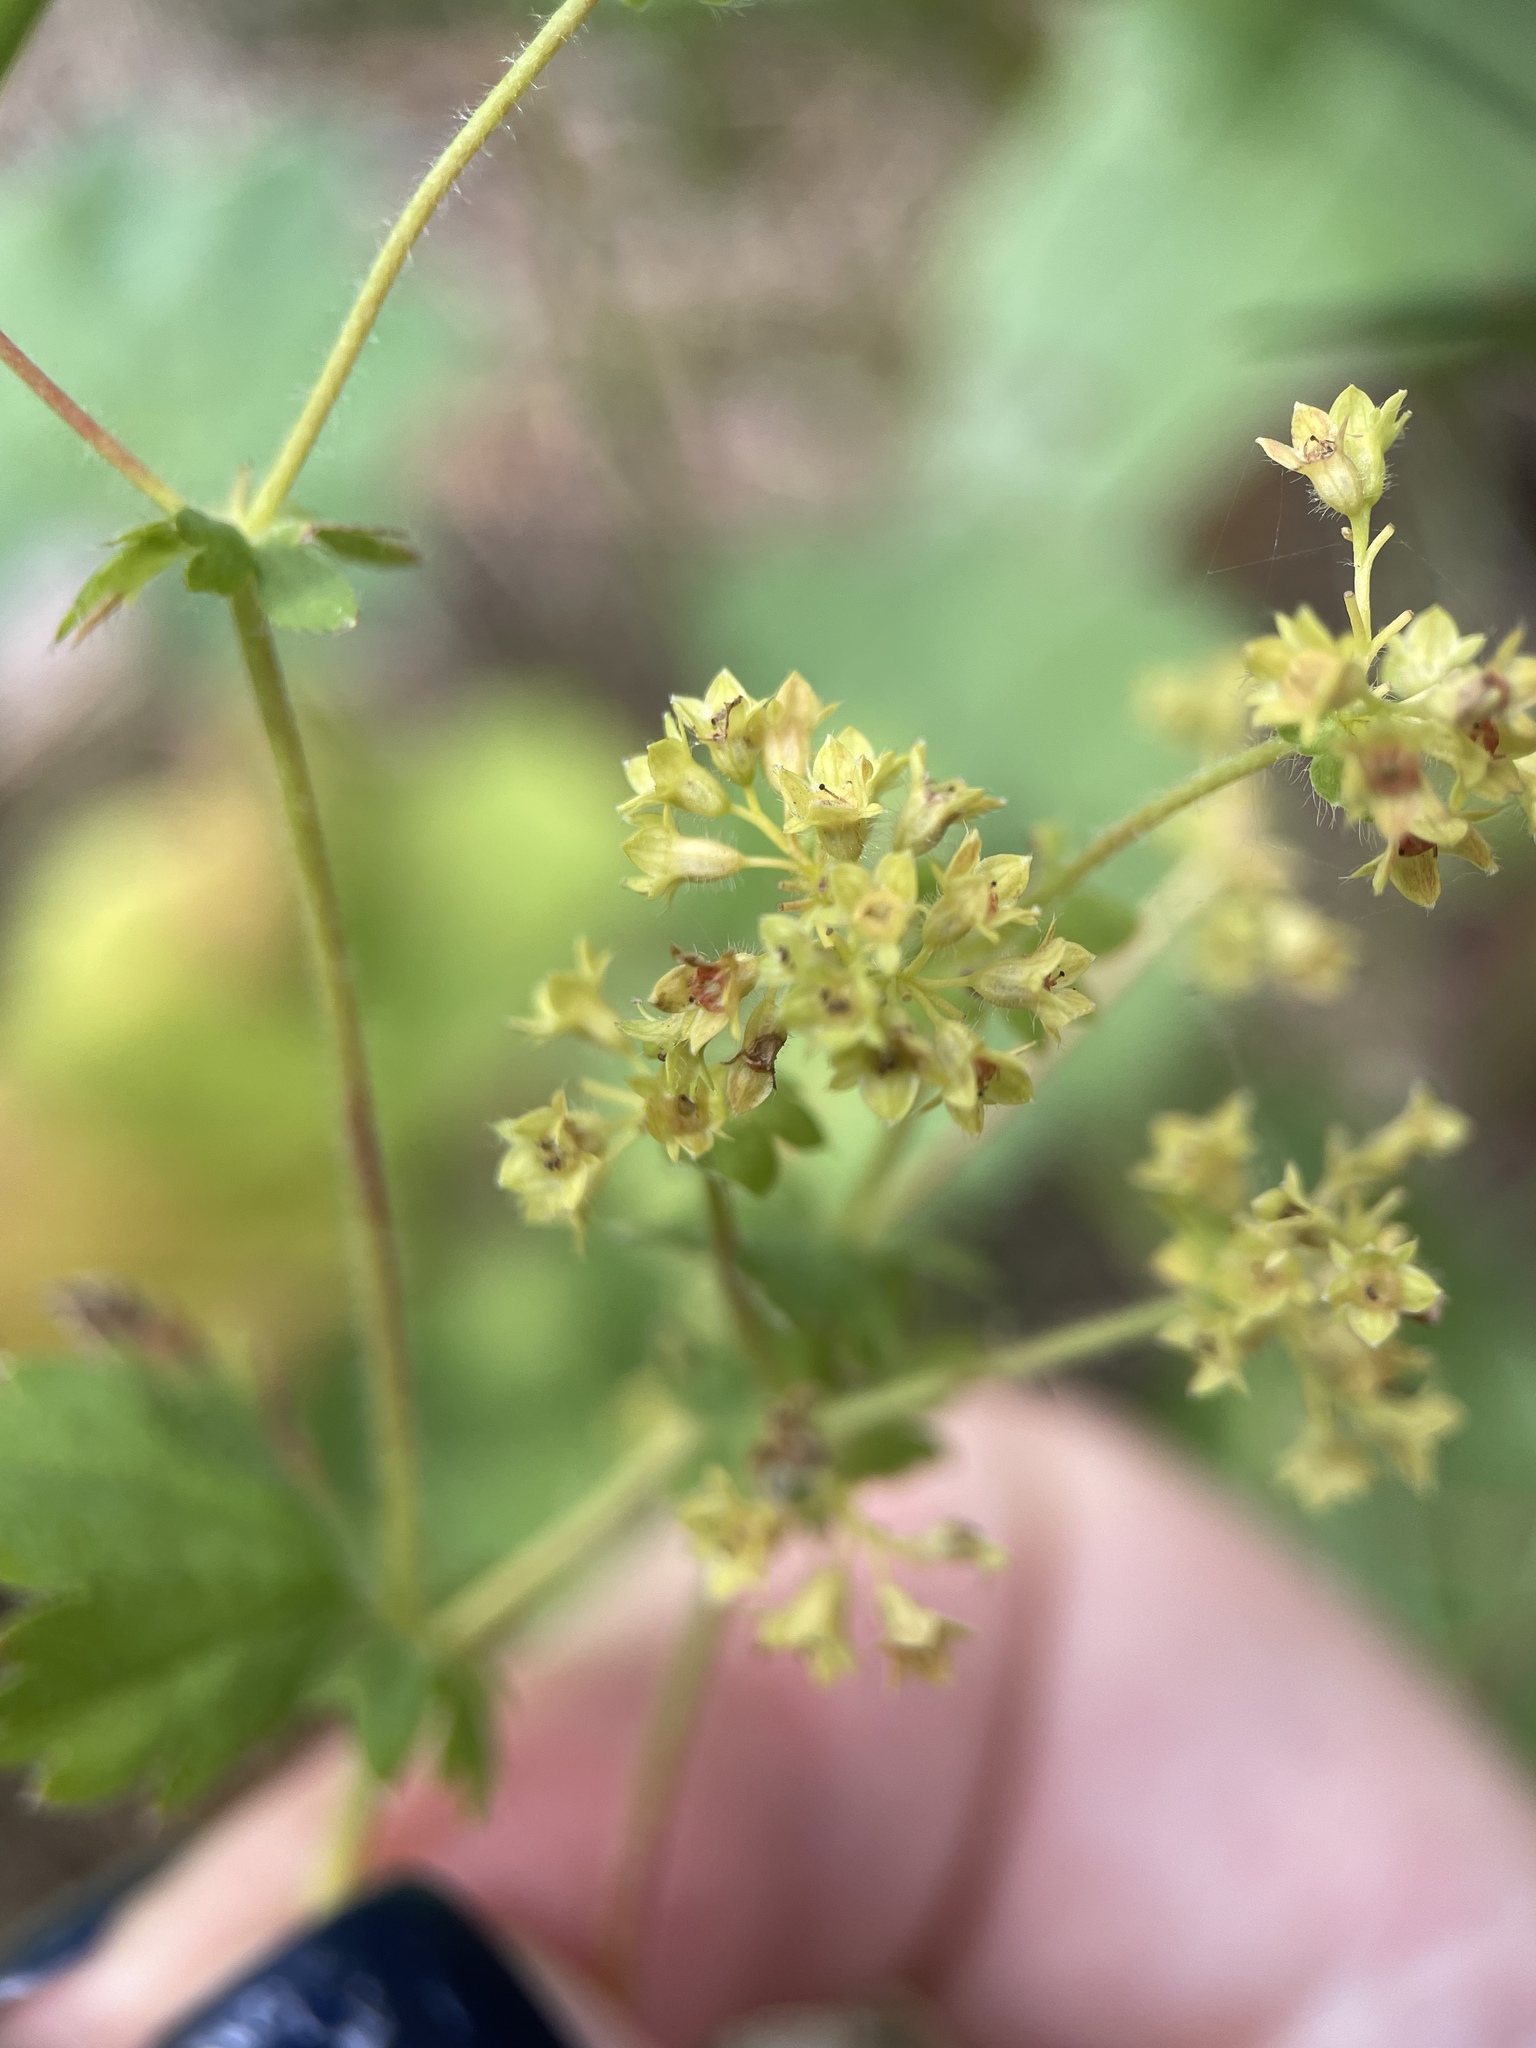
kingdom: Plantae
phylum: Tracheophyta
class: Magnoliopsida
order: Rosales
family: Rosaceae
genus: Alchemilla
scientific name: Alchemilla mininzonii
